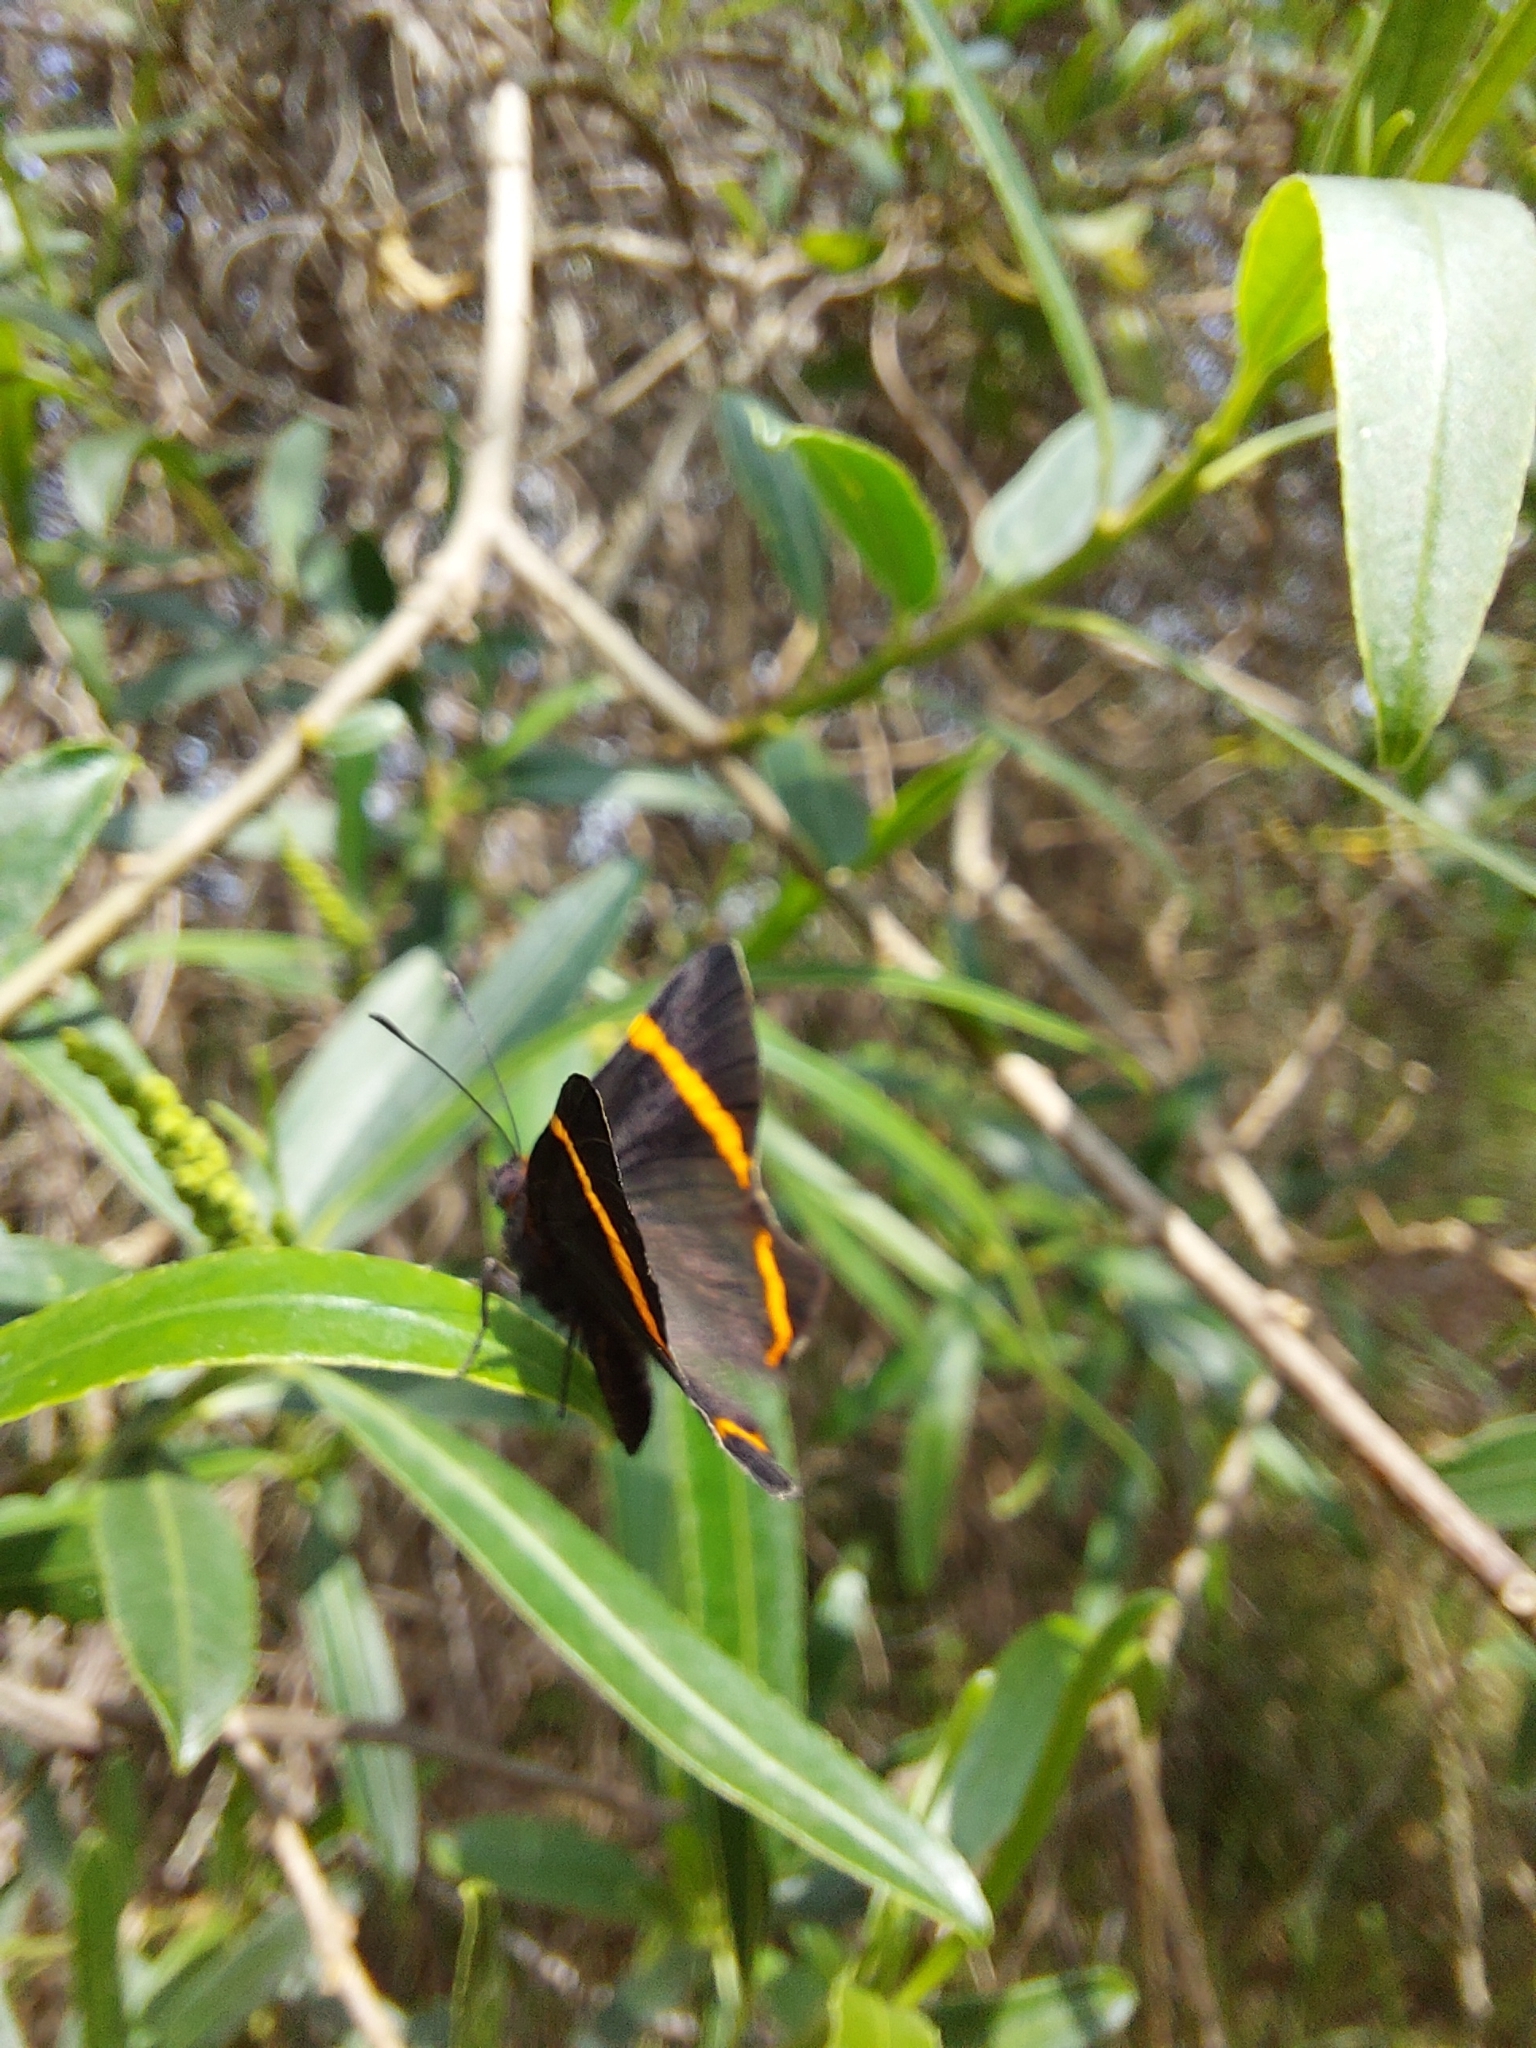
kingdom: Animalia
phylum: Arthropoda
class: Insecta
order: Lepidoptera
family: Riodinidae
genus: Riodina
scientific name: Riodina lysippoides
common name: Little dancer metalmark
